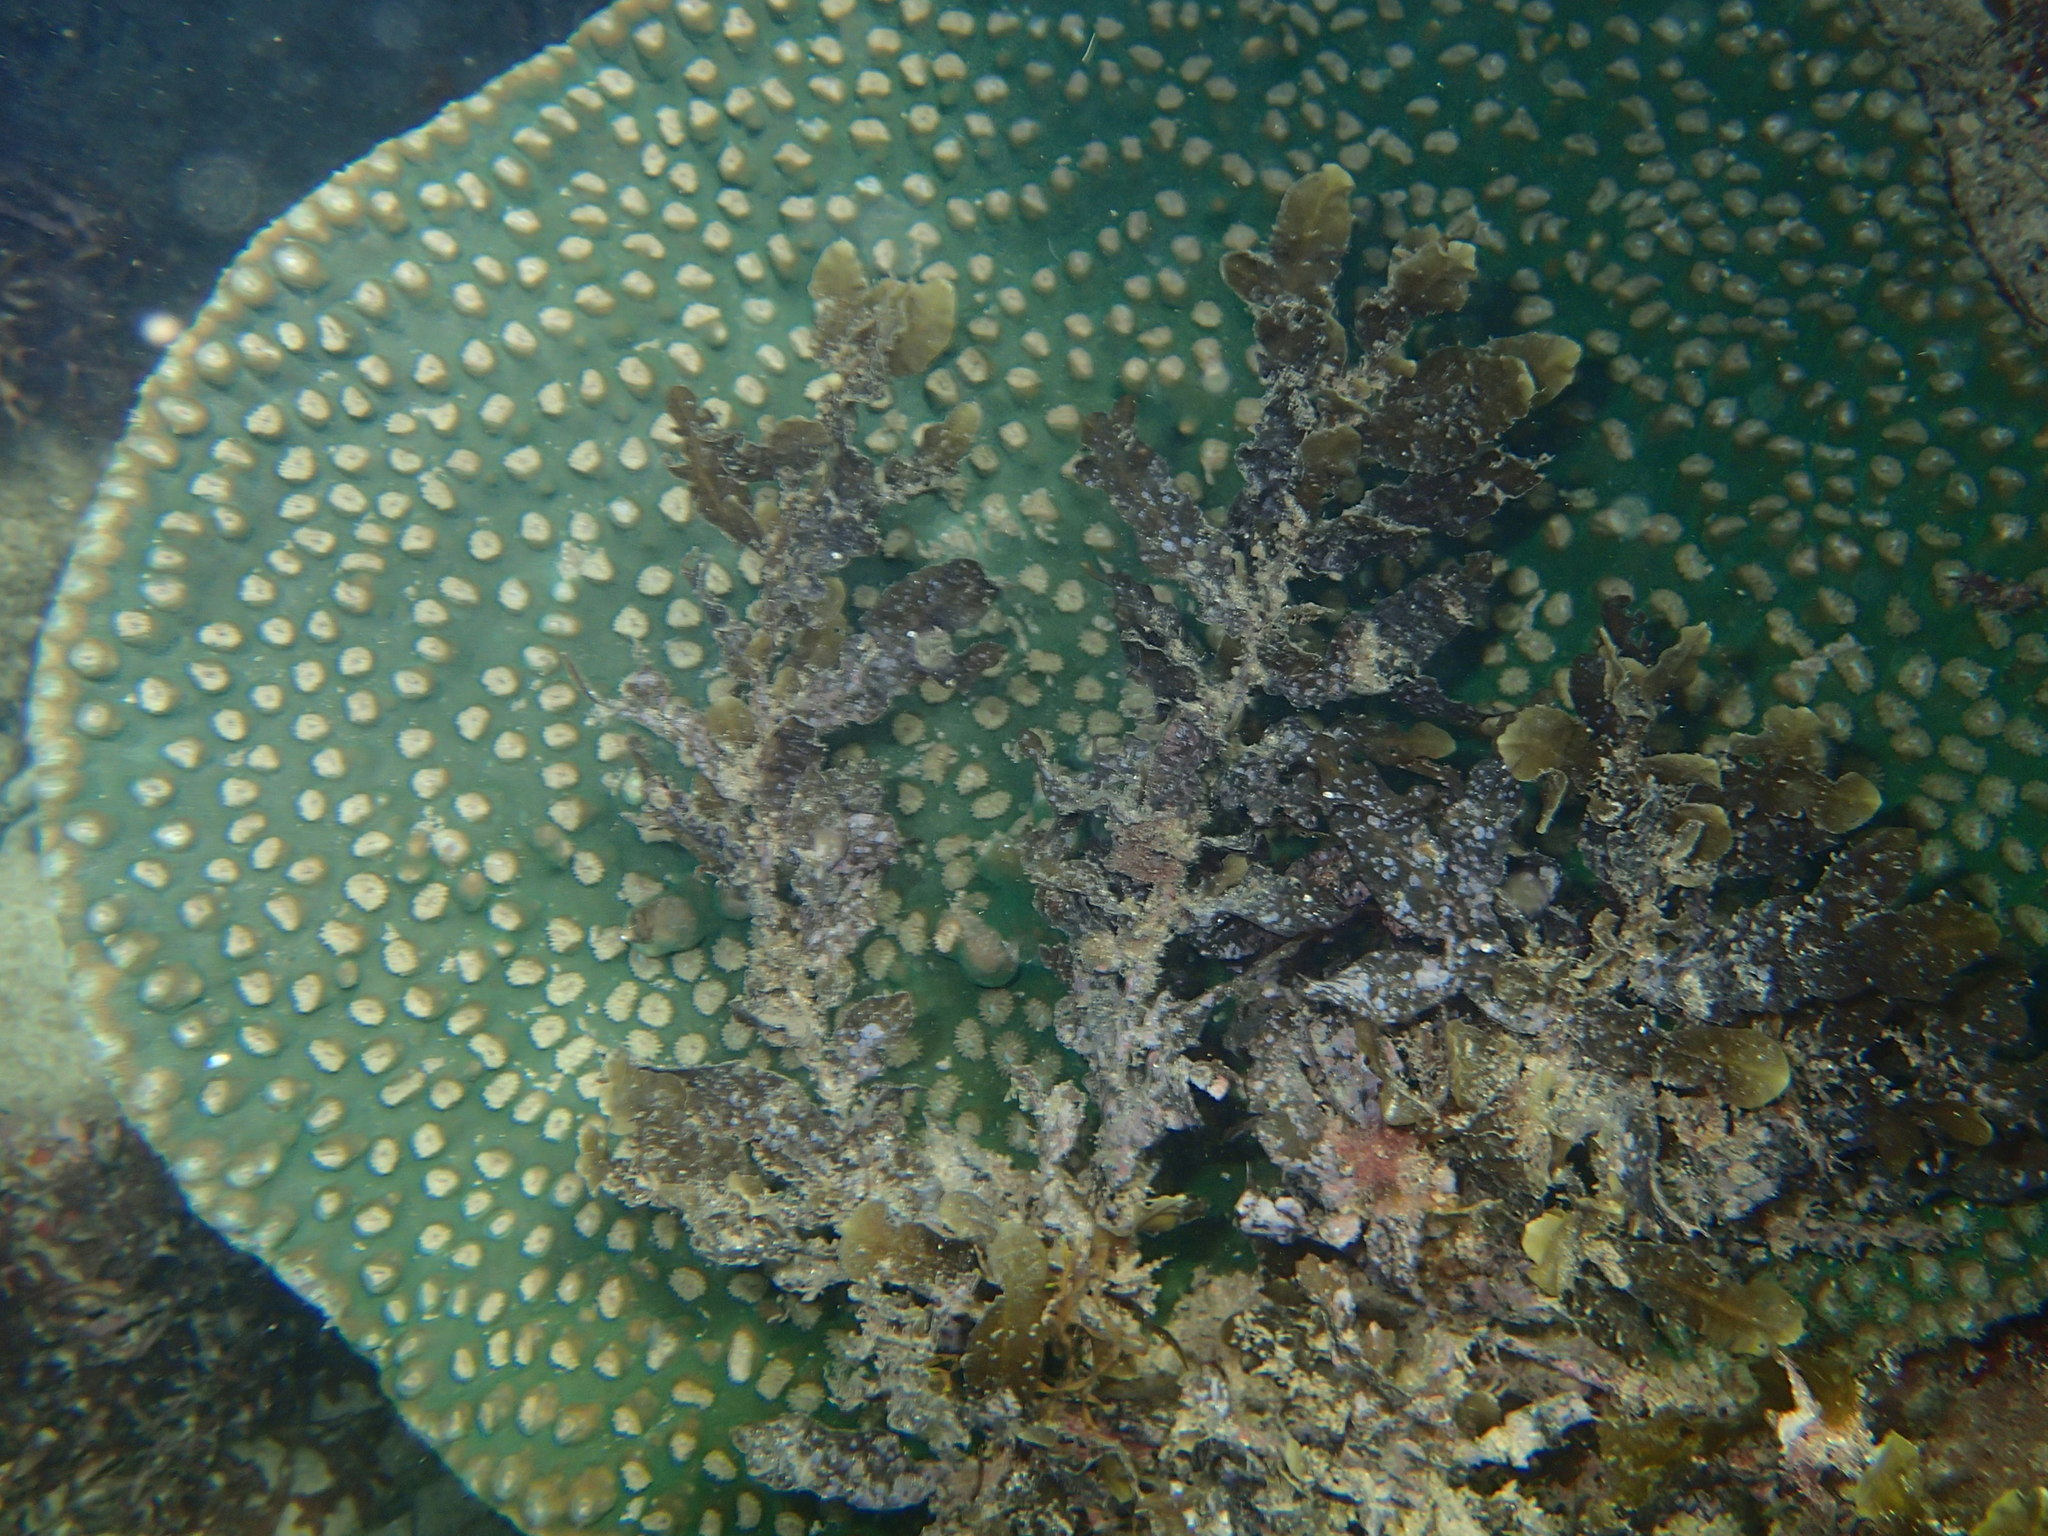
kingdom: Animalia
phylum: Cnidaria
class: Anthozoa
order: Scleractinia
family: Dendrophylliidae
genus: Duncanopsammia
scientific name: Duncanopsammia peltata
